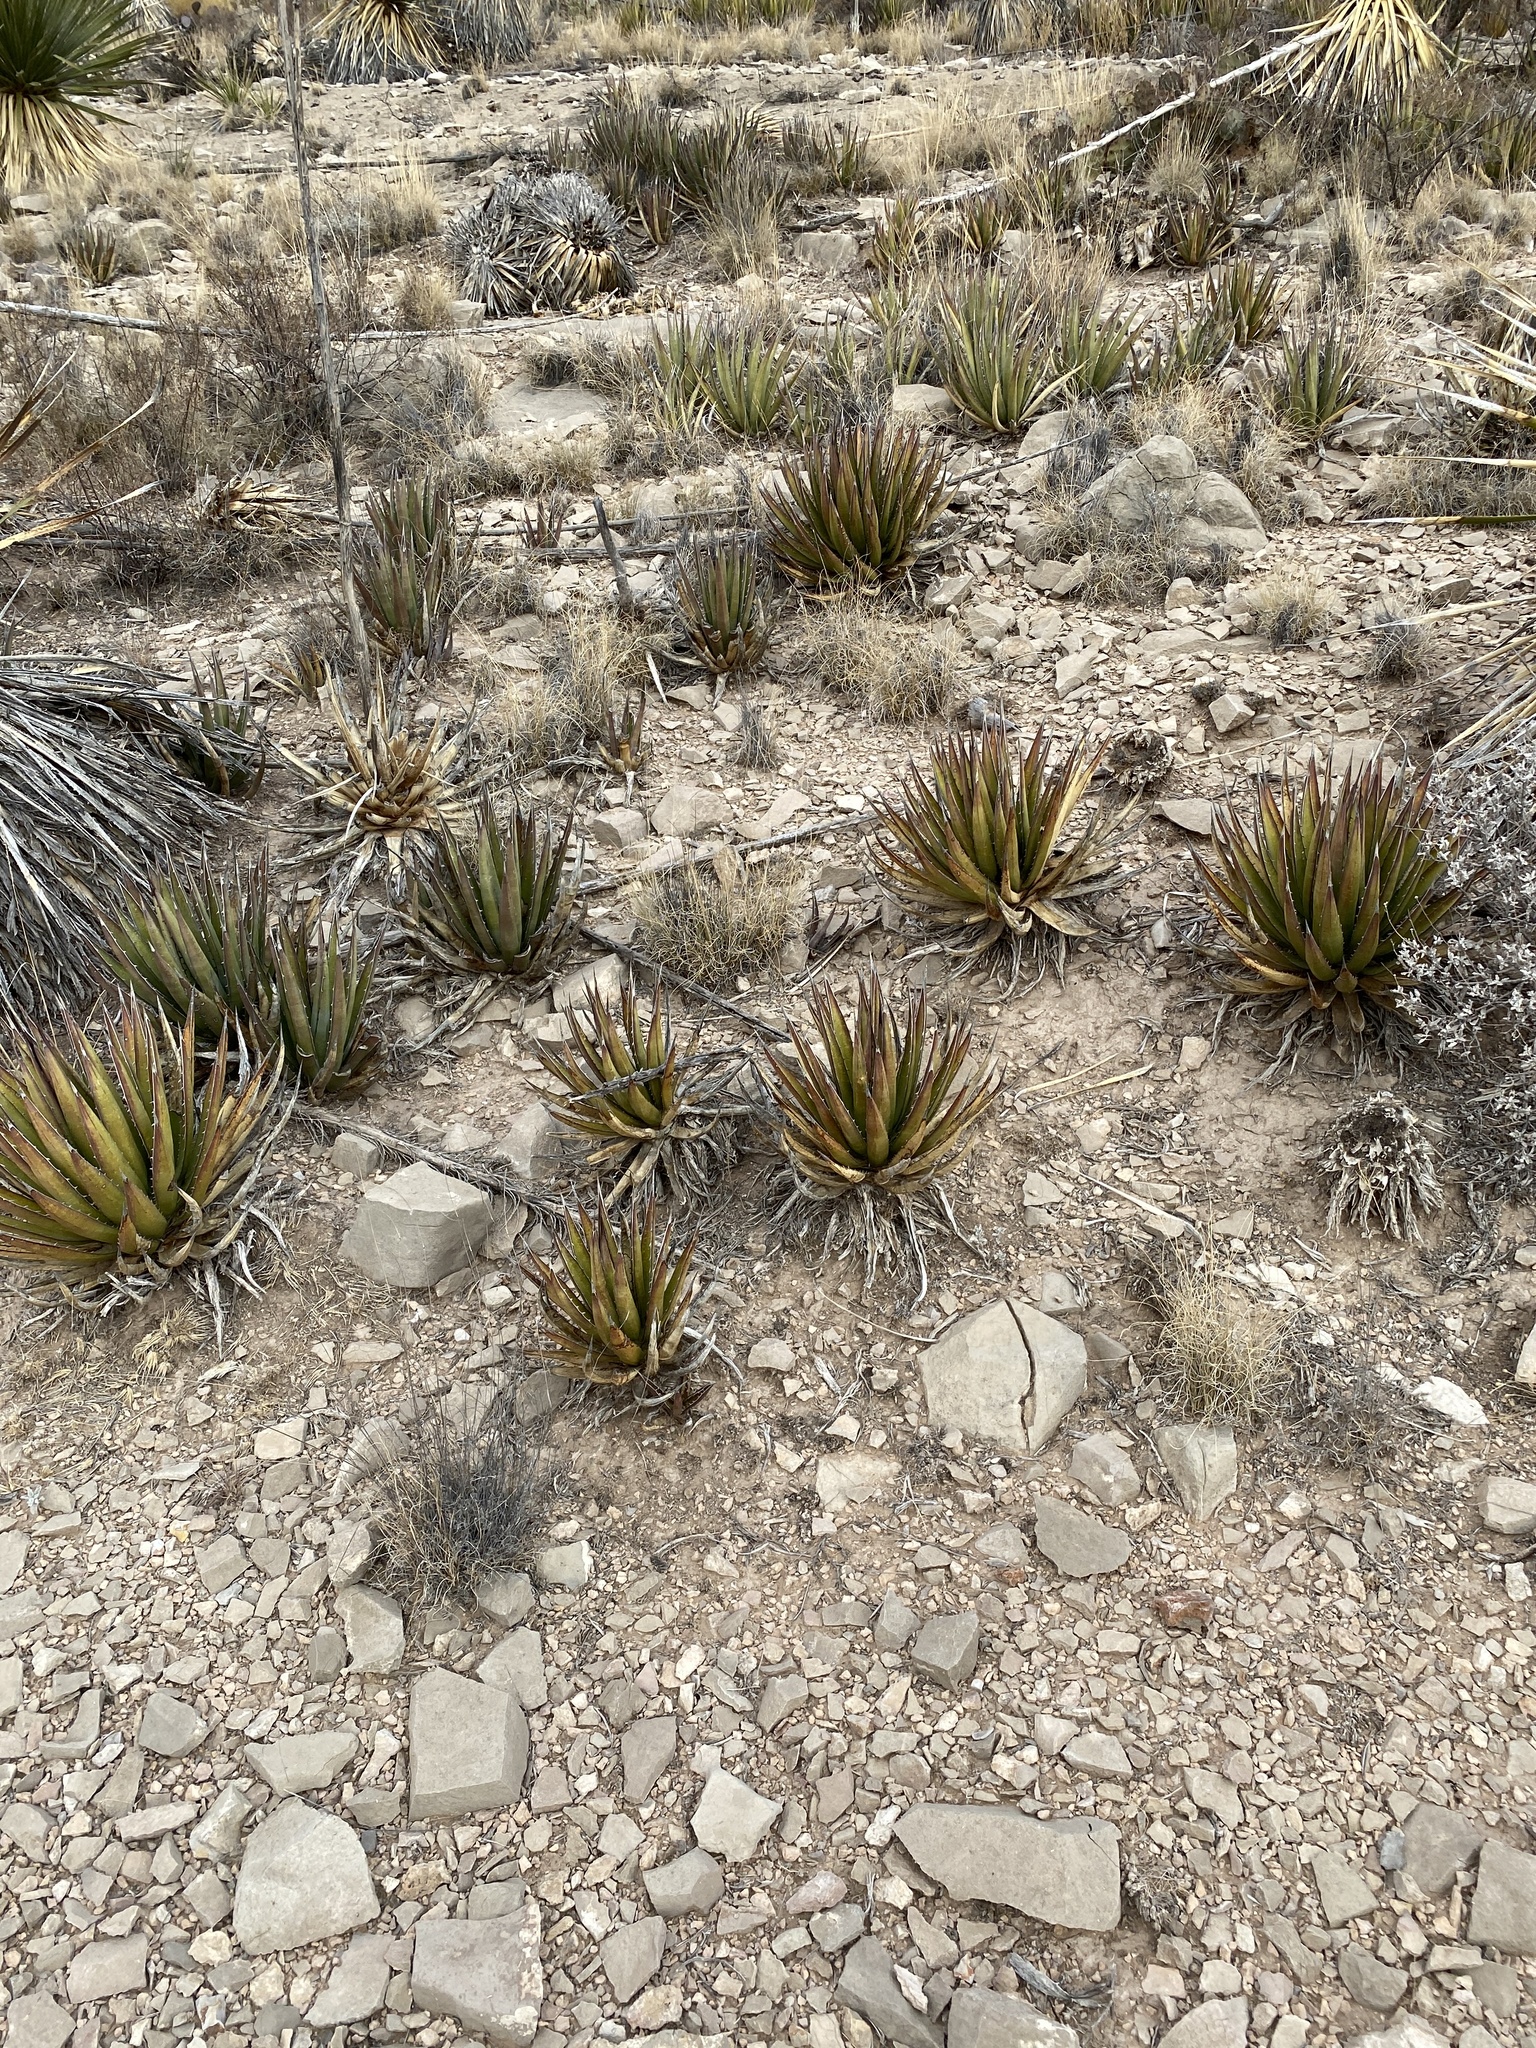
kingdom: Plantae
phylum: Tracheophyta
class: Liliopsida
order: Asparagales
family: Asparagaceae
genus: Agave
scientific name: Agave lechuguilla
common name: Lecheguilla agave
